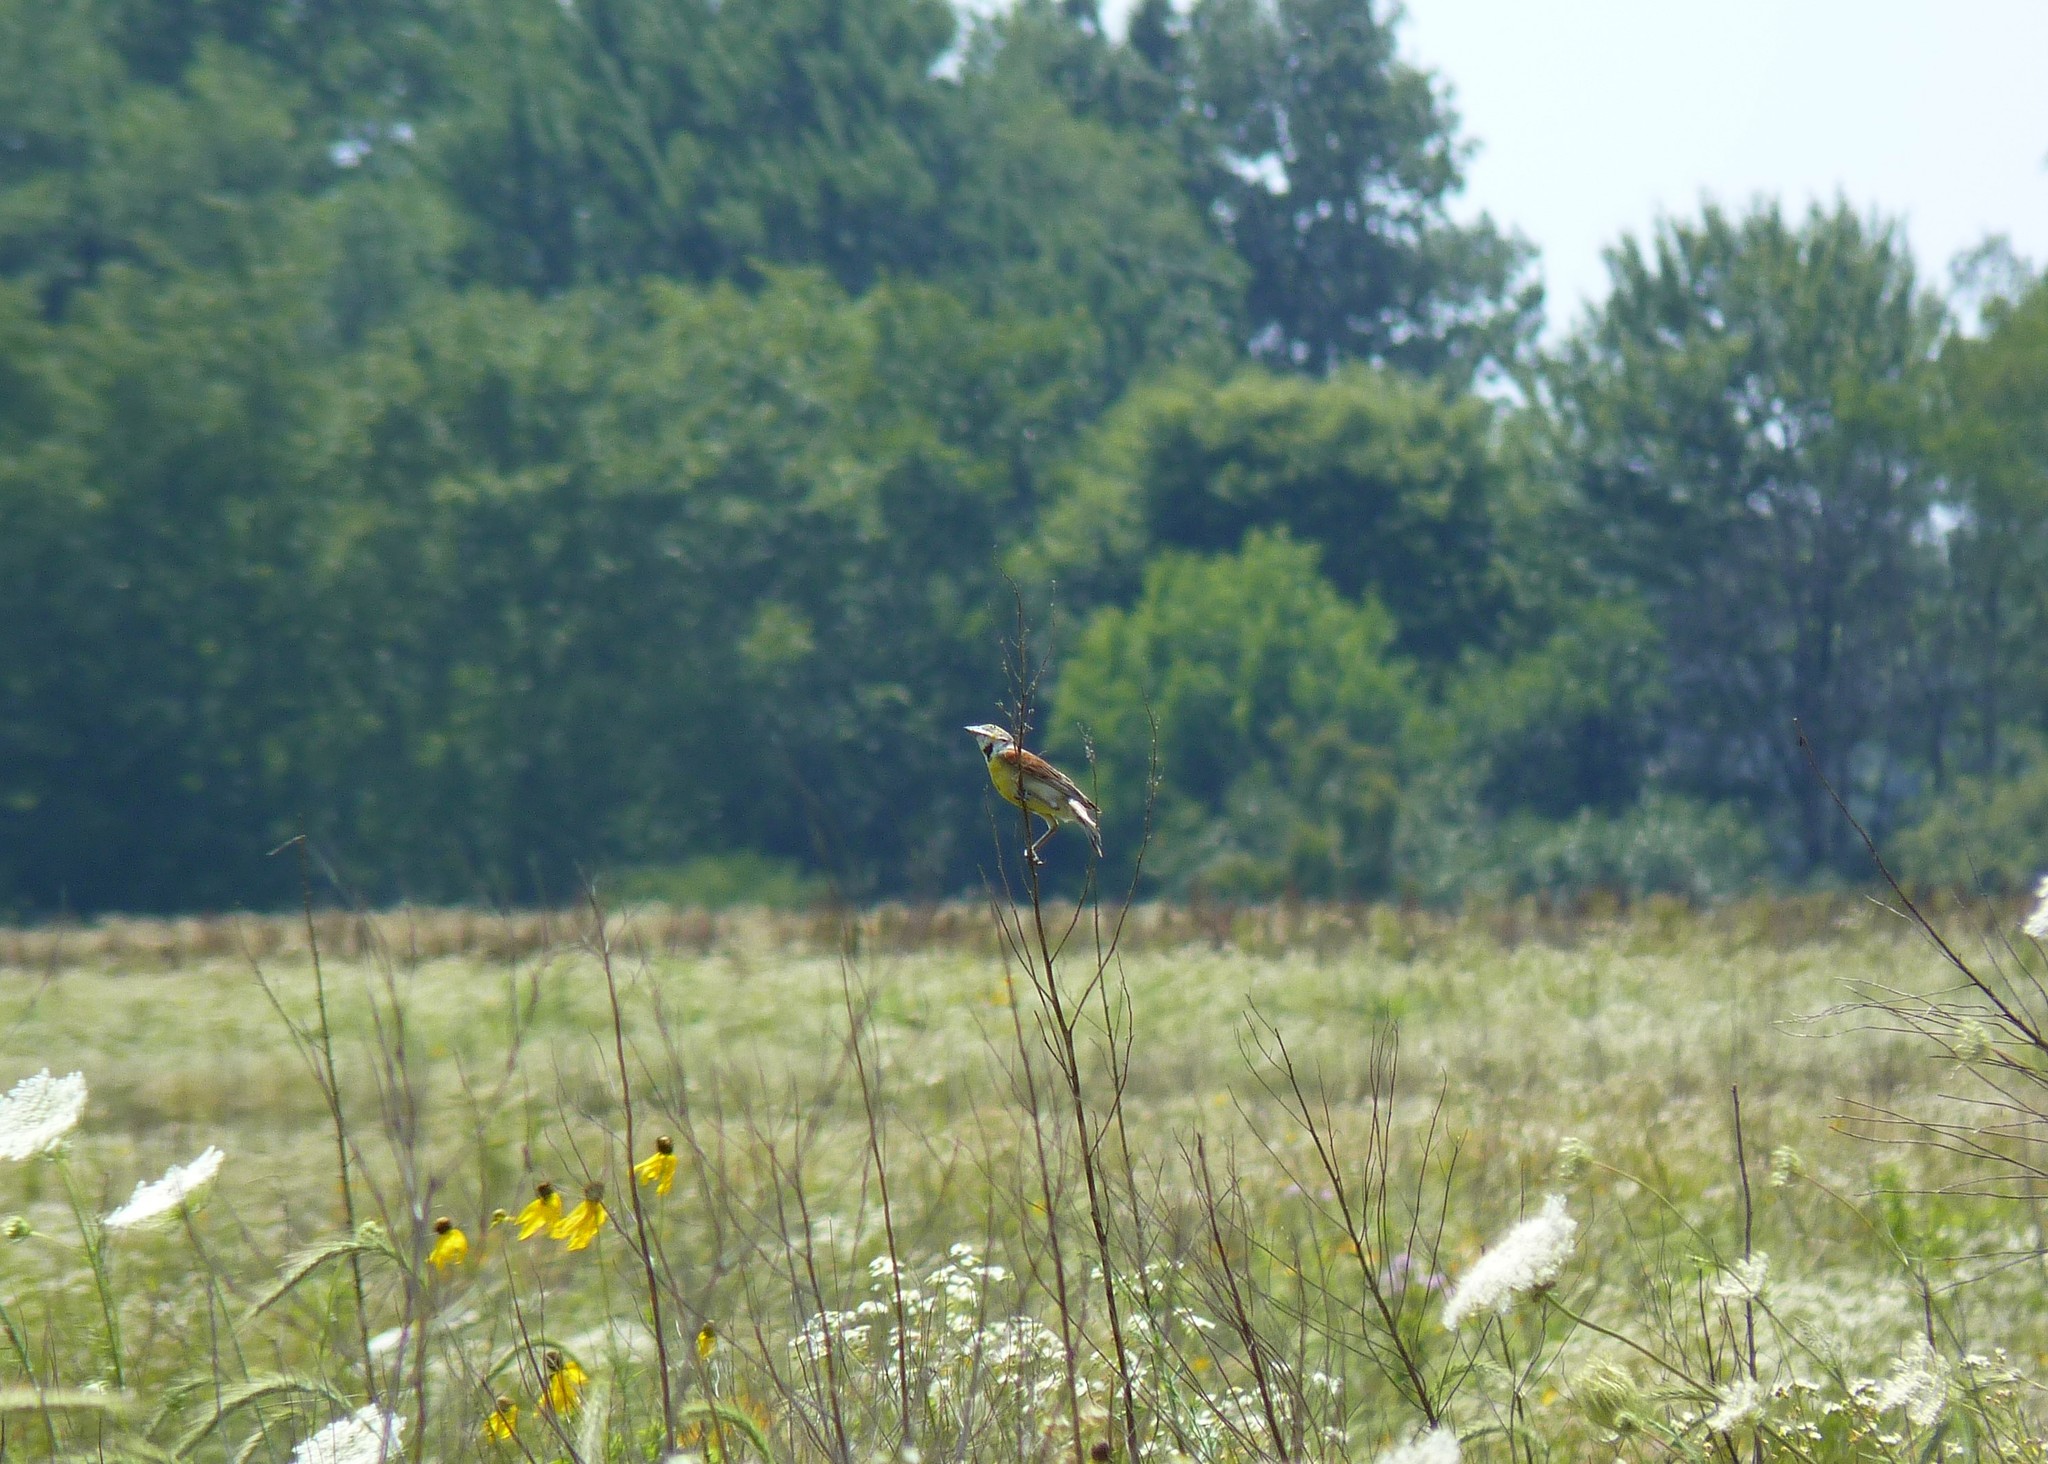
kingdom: Animalia
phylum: Chordata
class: Aves
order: Passeriformes
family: Cardinalidae
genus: Spiza
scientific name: Spiza americana
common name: Dickcissel
